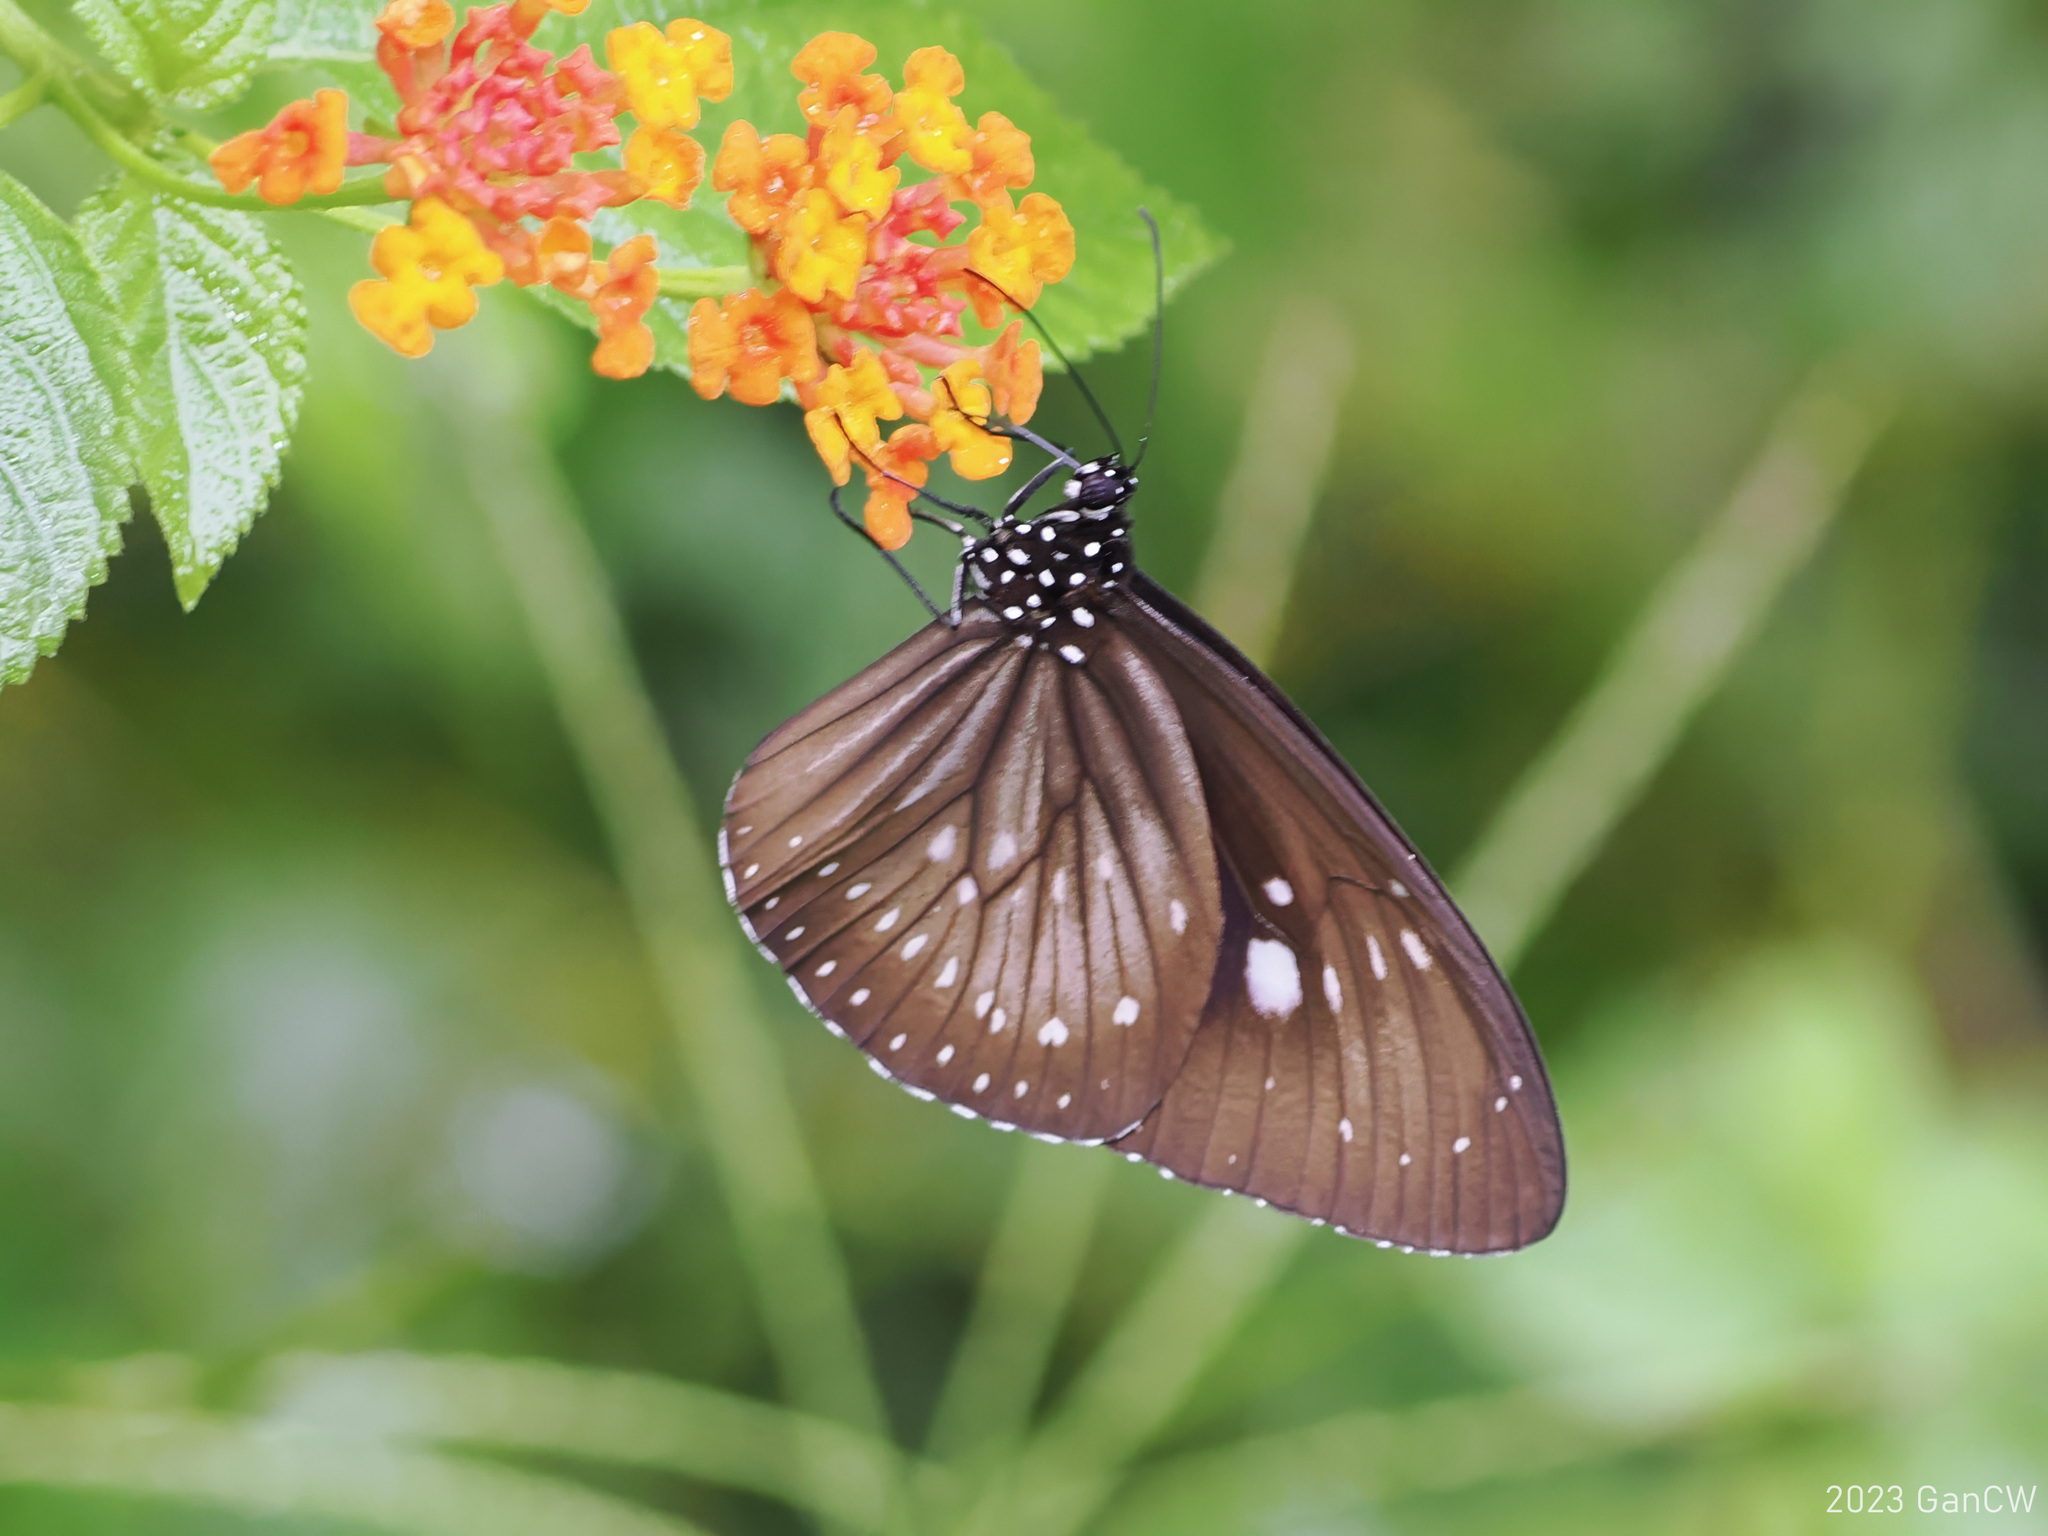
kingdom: Animalia
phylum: Arthropoda
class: Insecta
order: Lepidoptera
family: Nymphalidae
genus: Euploea
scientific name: Euploea algea
